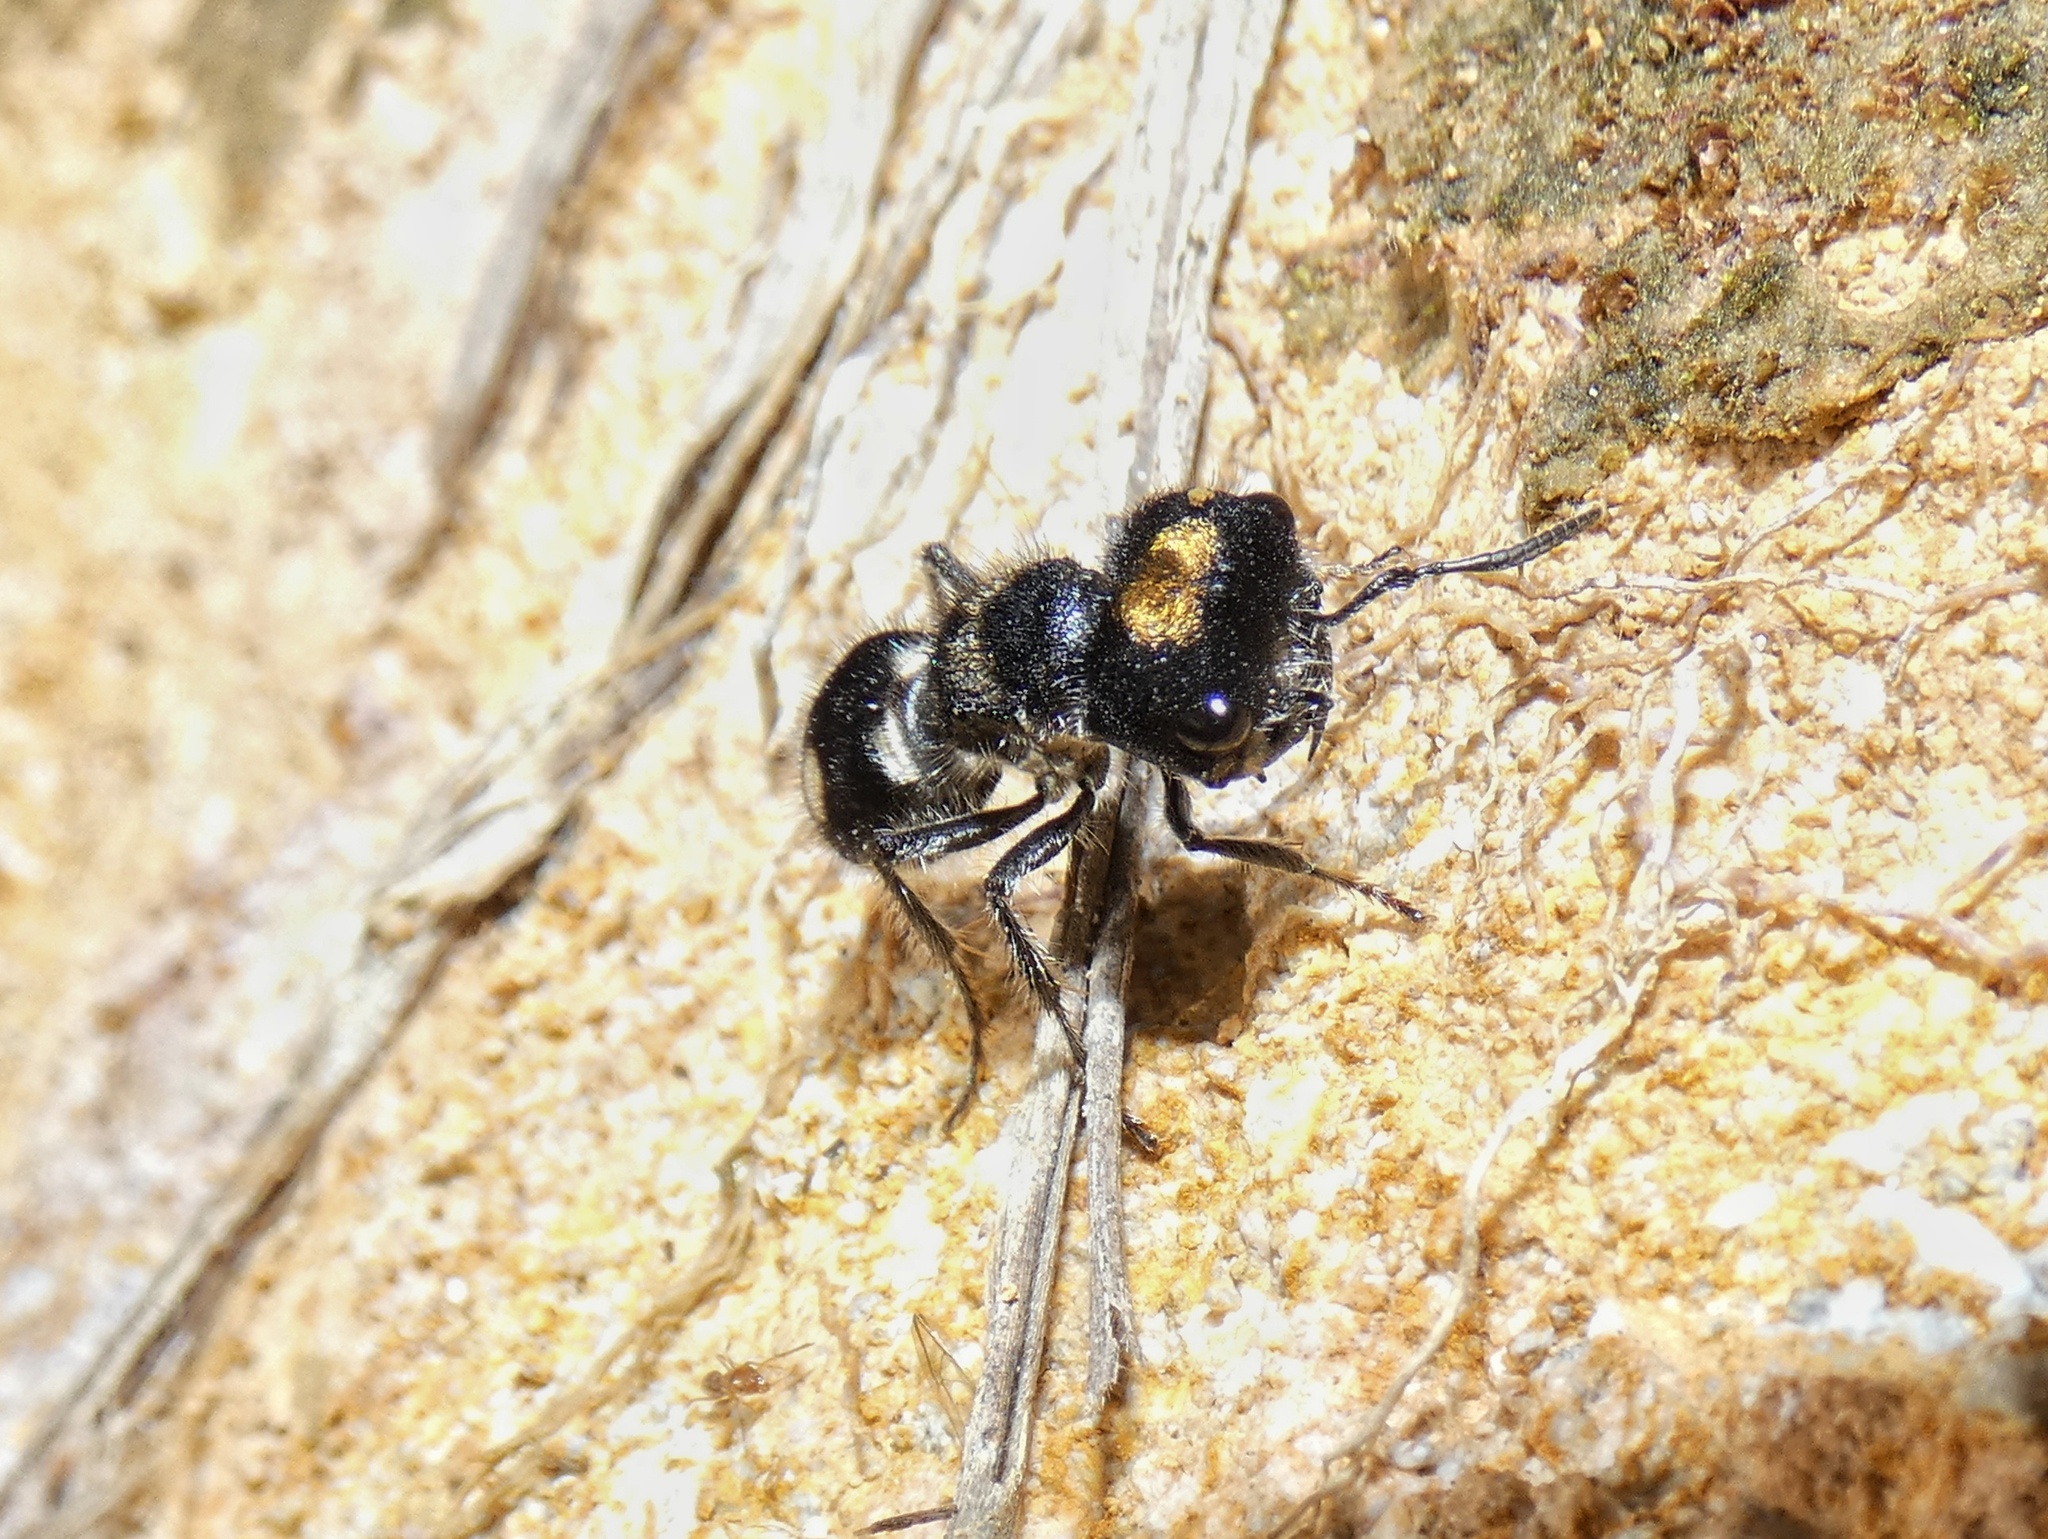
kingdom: Animalia
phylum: Arthropoda
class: Insecta
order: Hymenoptera
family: Mutillidae
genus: Hoplognathoca
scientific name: Hoplognathoca costarricensis
